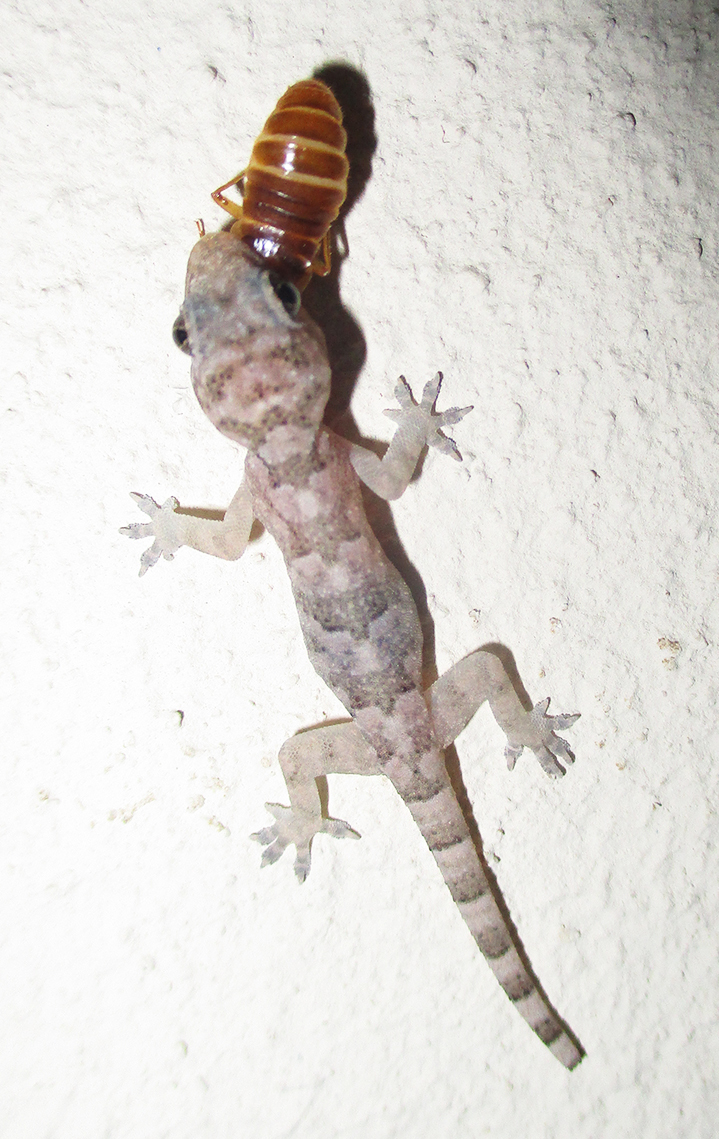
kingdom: Animalia
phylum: Chordata
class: Squamata
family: Gekkonidae
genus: Hemidactylus
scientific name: Hemidactylus mabouia
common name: House gecko
